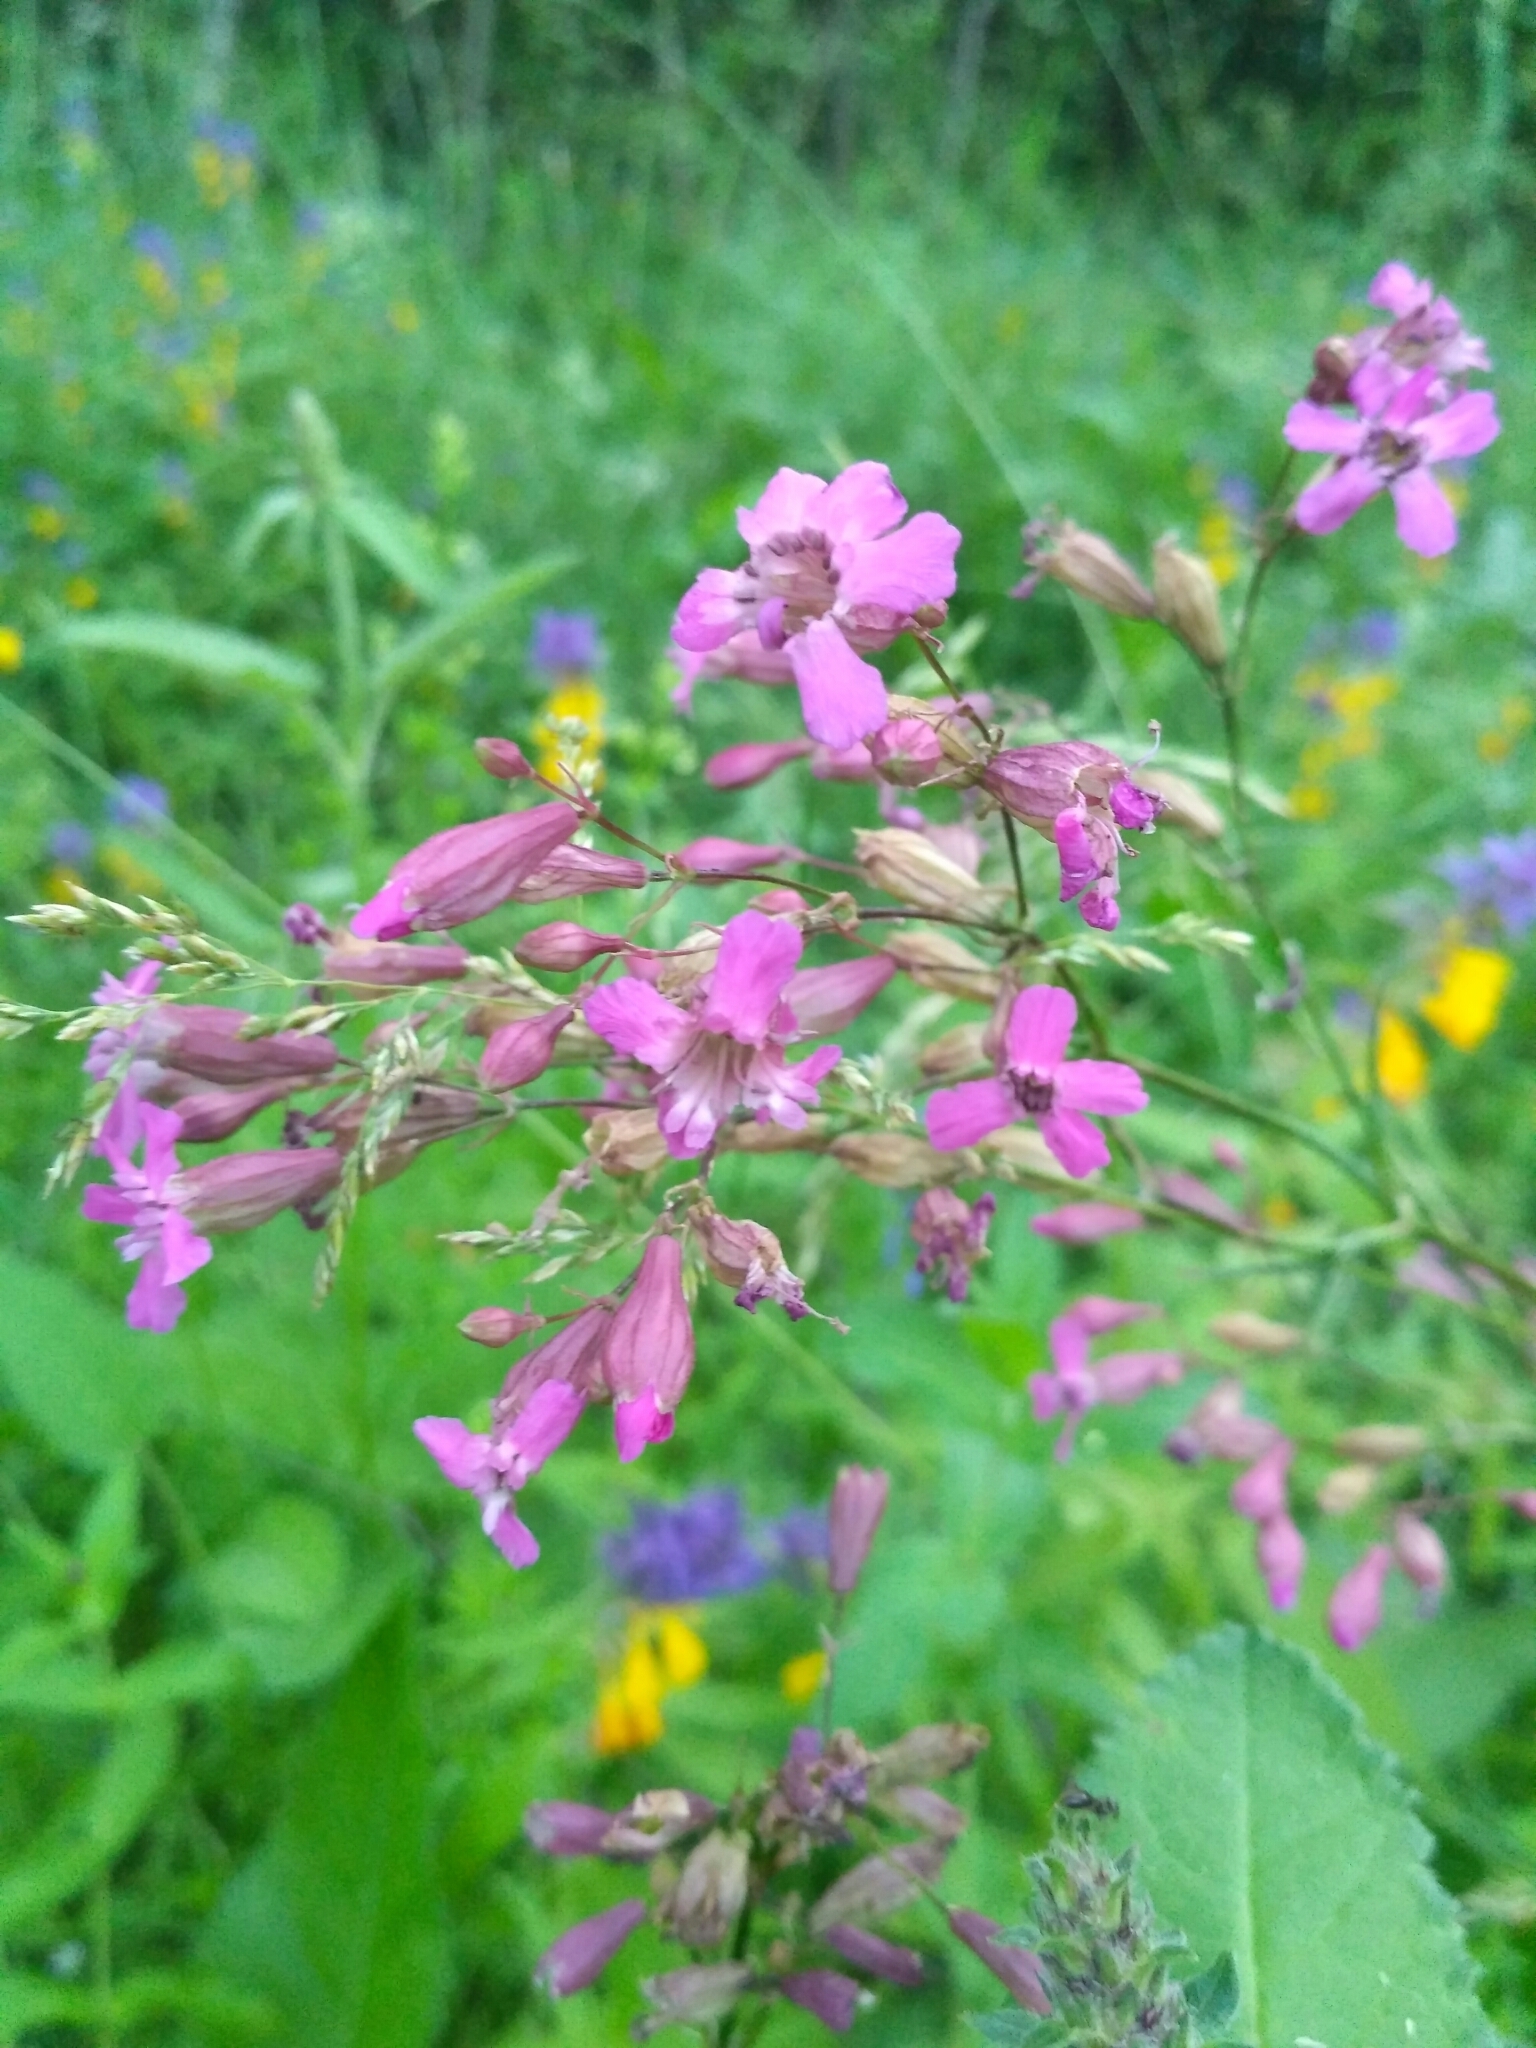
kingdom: Plantae
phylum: Tracheophyta
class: Magnoliopsida
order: Caryophyllales
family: Caryophyllaceae
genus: Viscaria
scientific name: Viscaria vulgaris
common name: Clammy campion
